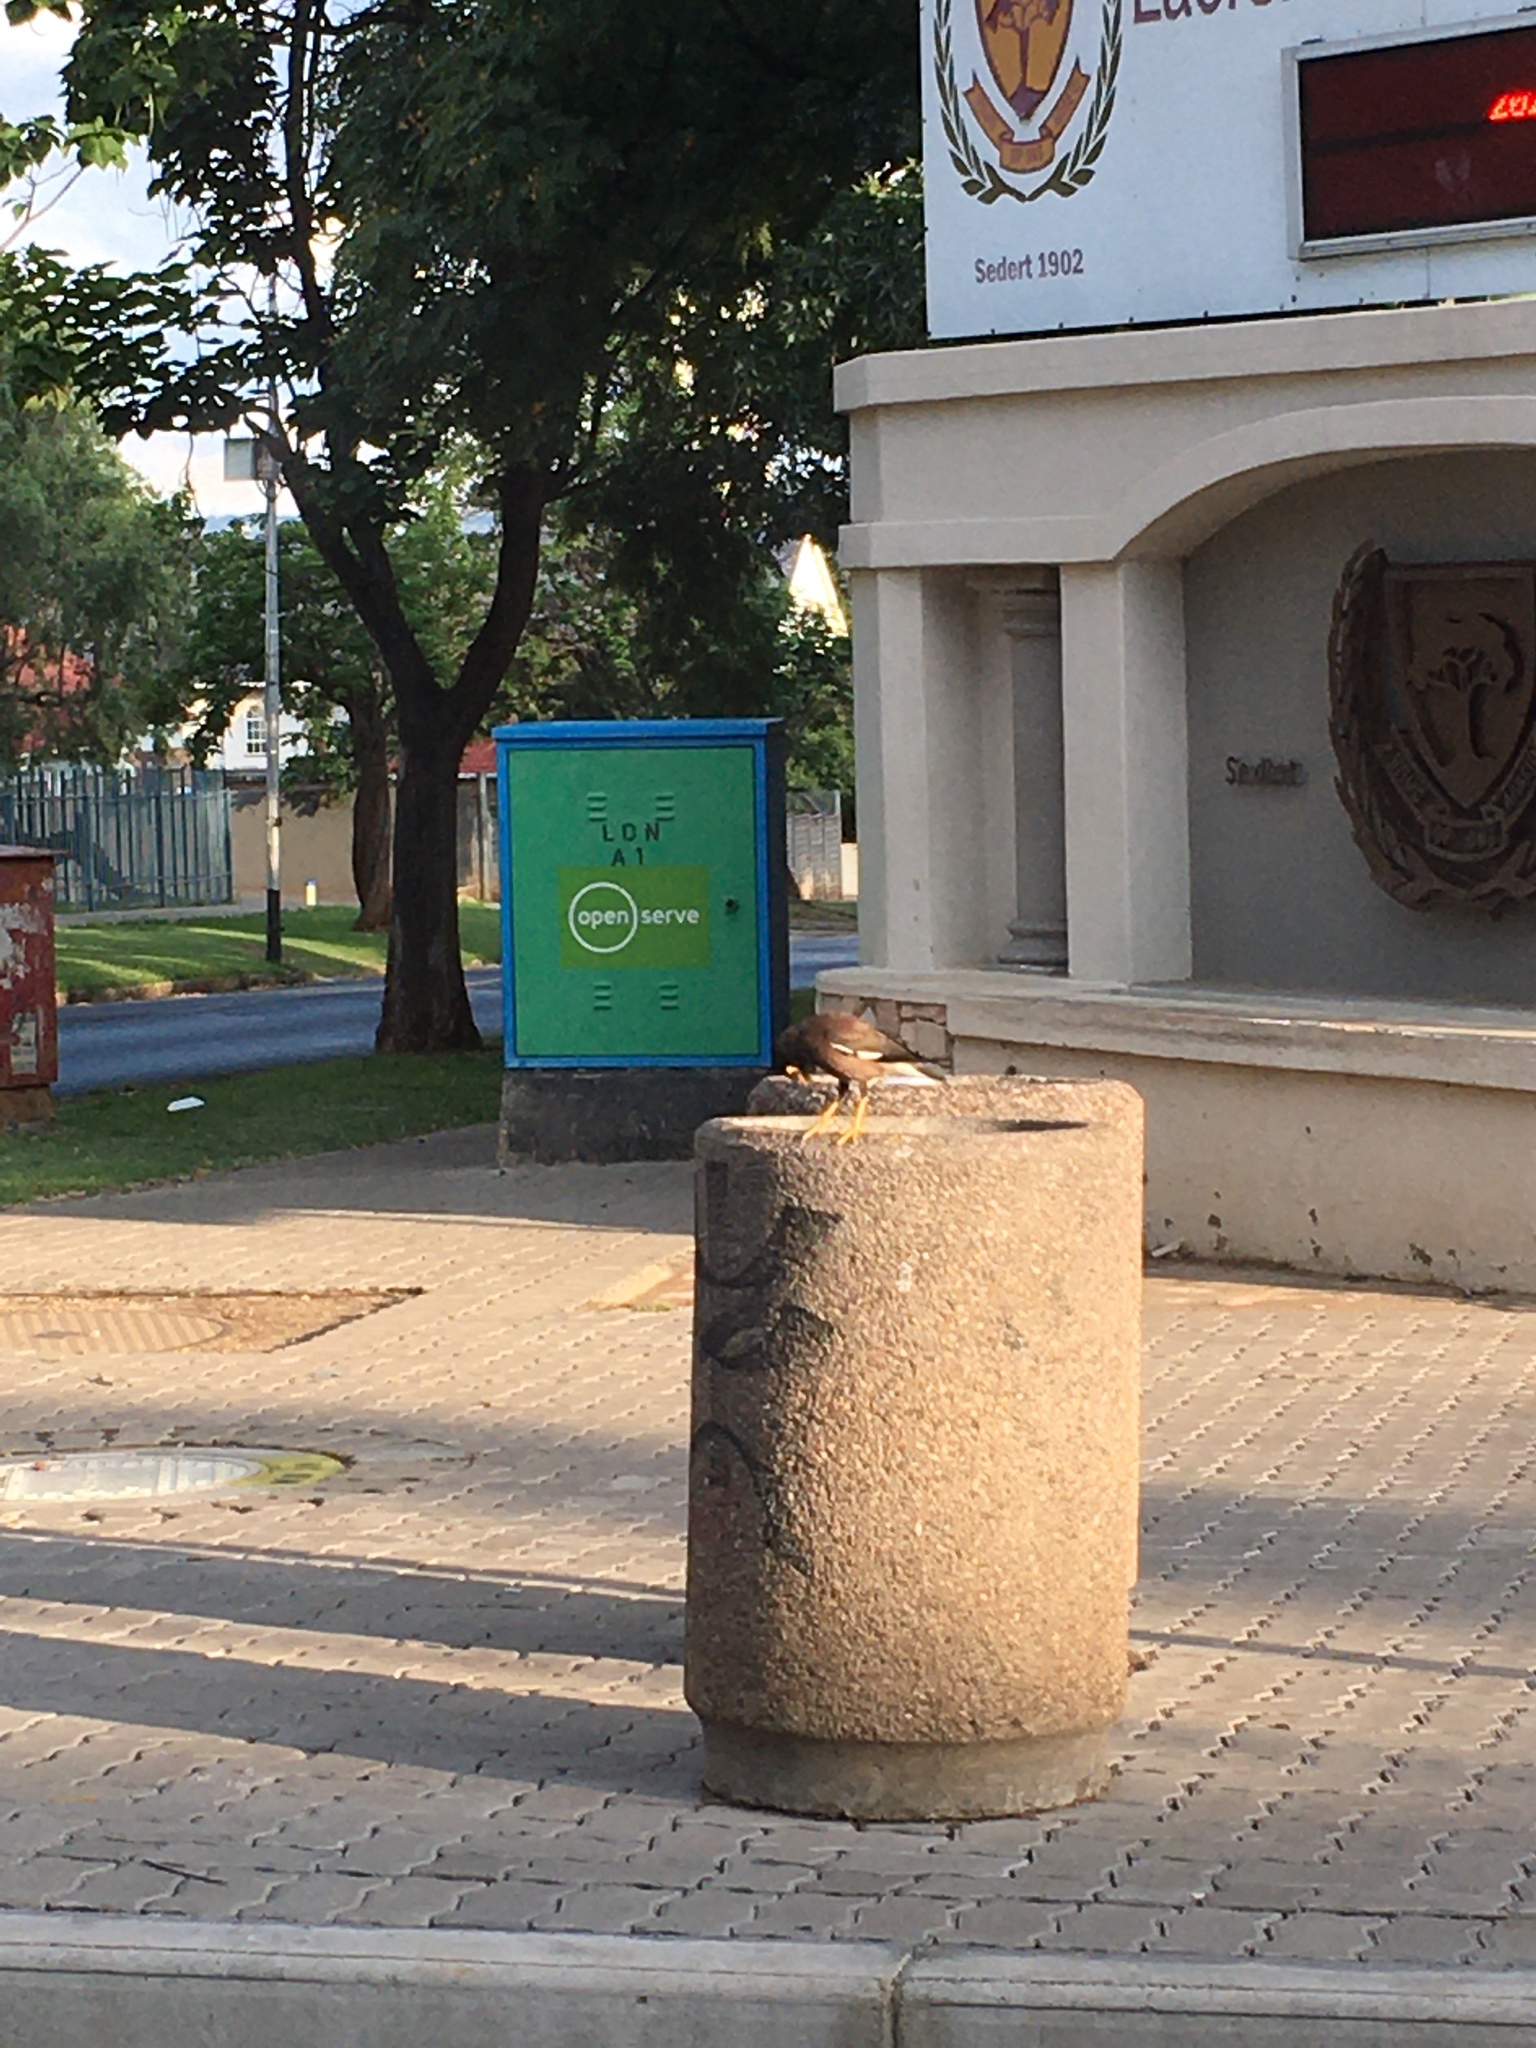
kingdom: Animalia
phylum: Chordata
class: Aves
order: Passeriformes
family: Sturnidae
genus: Acridotheres
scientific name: Acridotheres tristis
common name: Common myna
